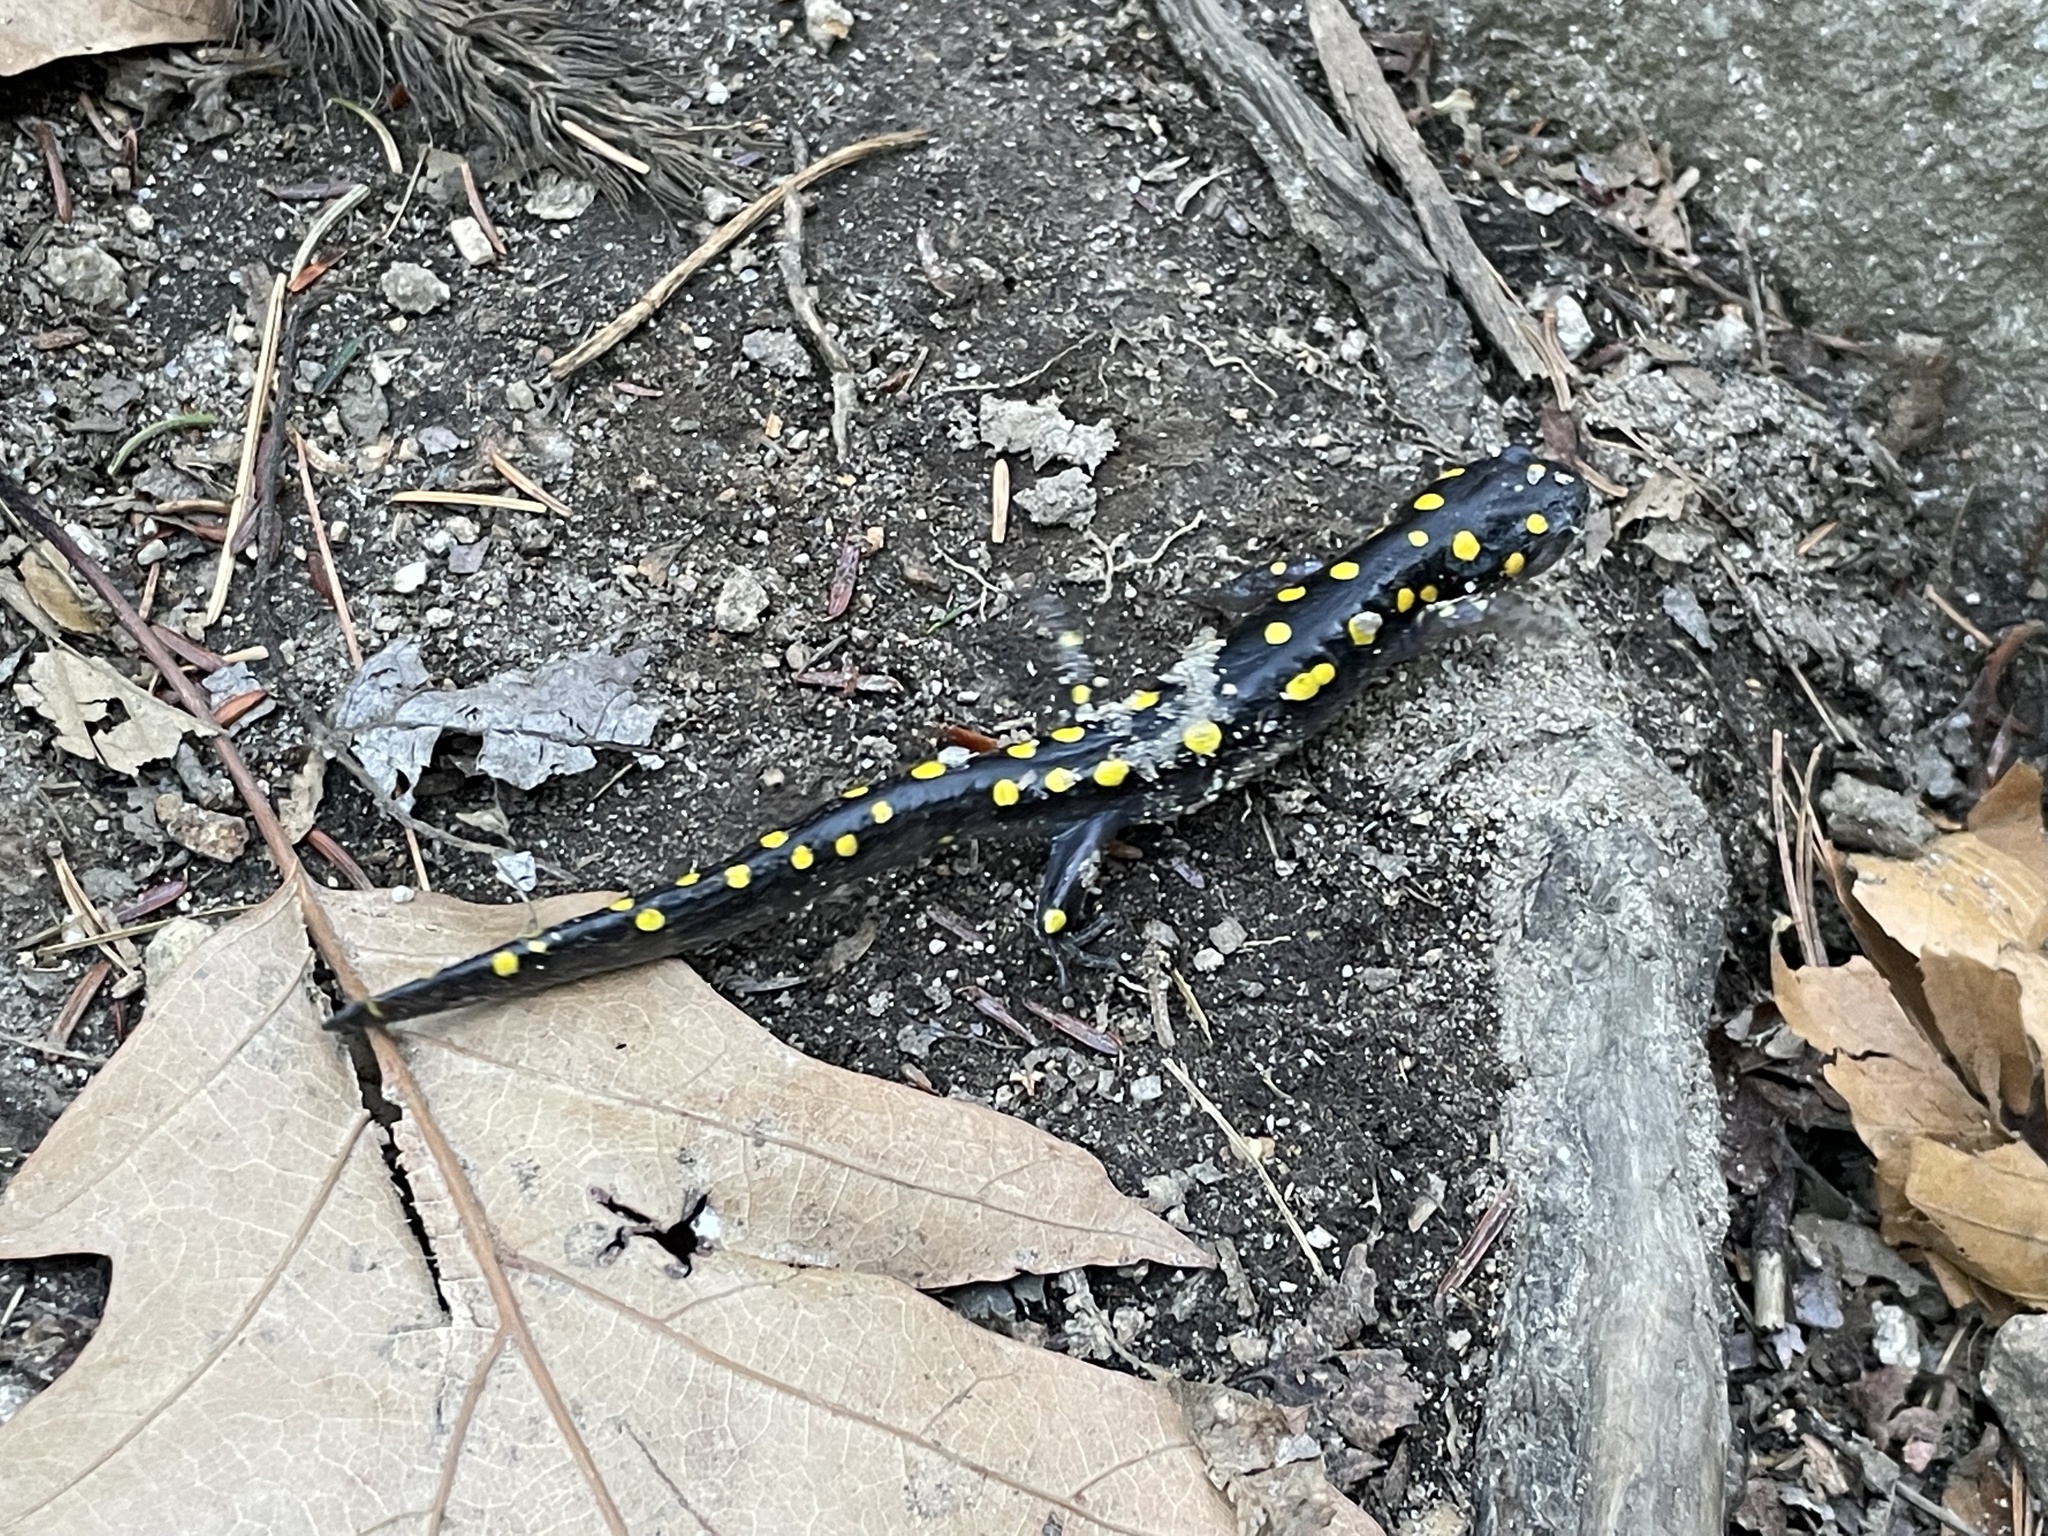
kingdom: Animalia
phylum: Chordata
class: Amphibia
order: Caudata
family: Ambystomatidae
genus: Ambystoma
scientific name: Ambystoma maculatum
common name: Spotted salamander
